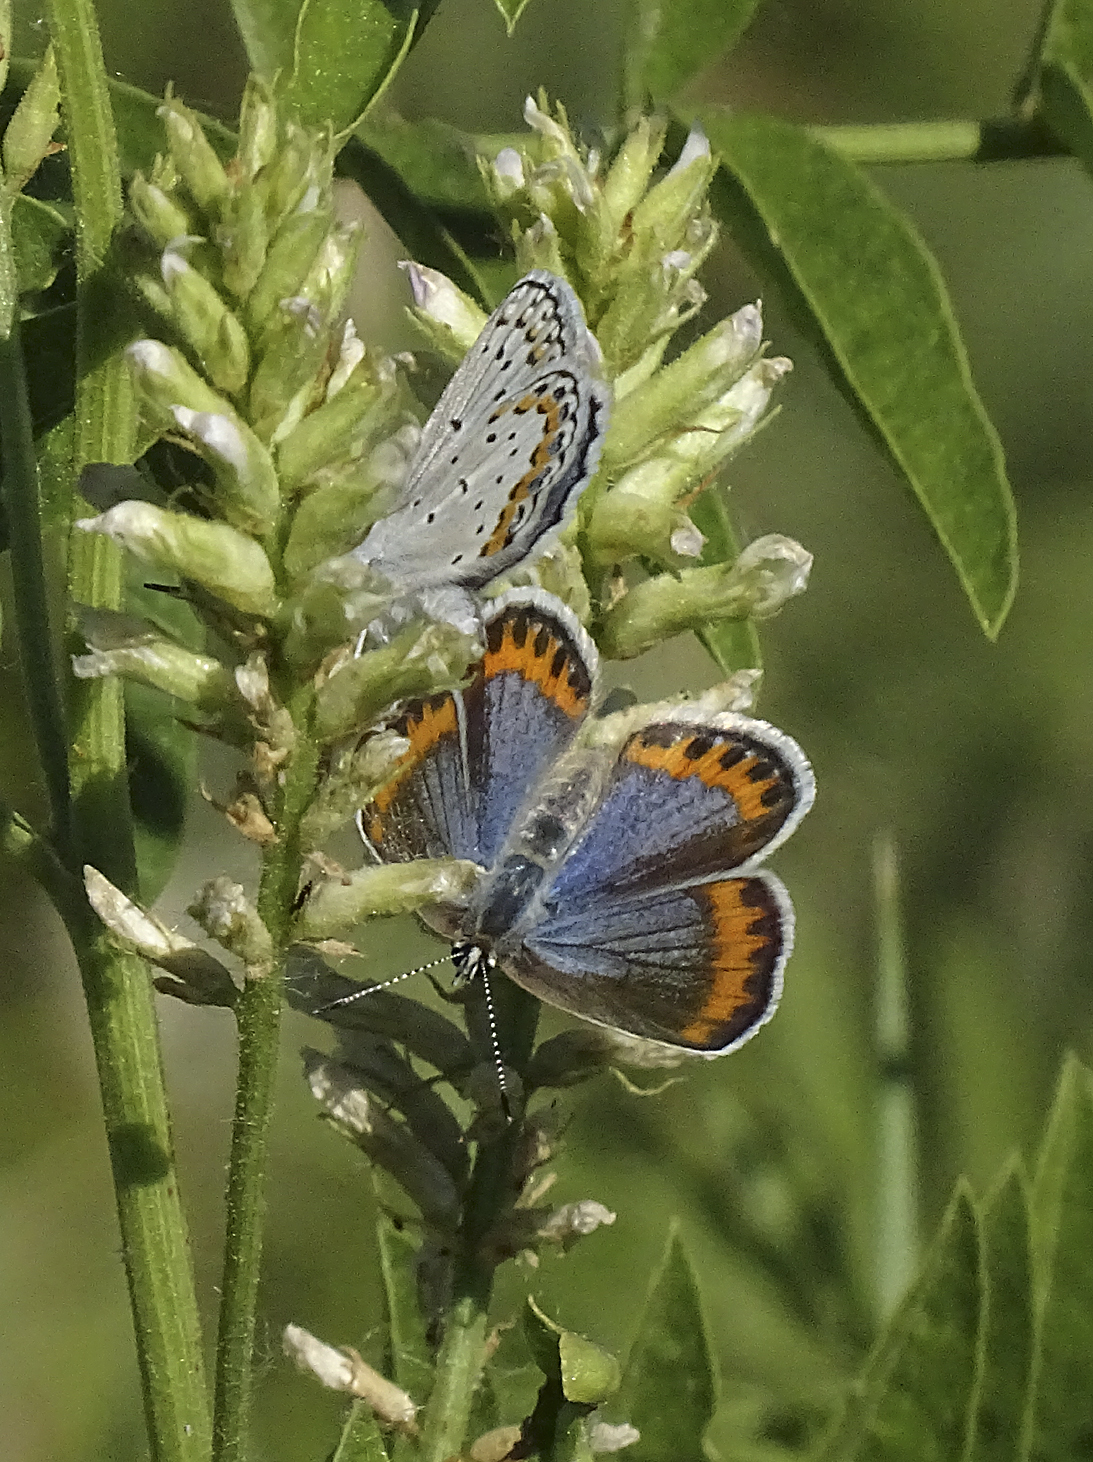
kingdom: Animalia
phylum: Arthropoda
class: Insecta
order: Lepidoptera
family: Lycaenidae
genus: Lycaeides
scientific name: Lycaeides melissa
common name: Melissa blue
